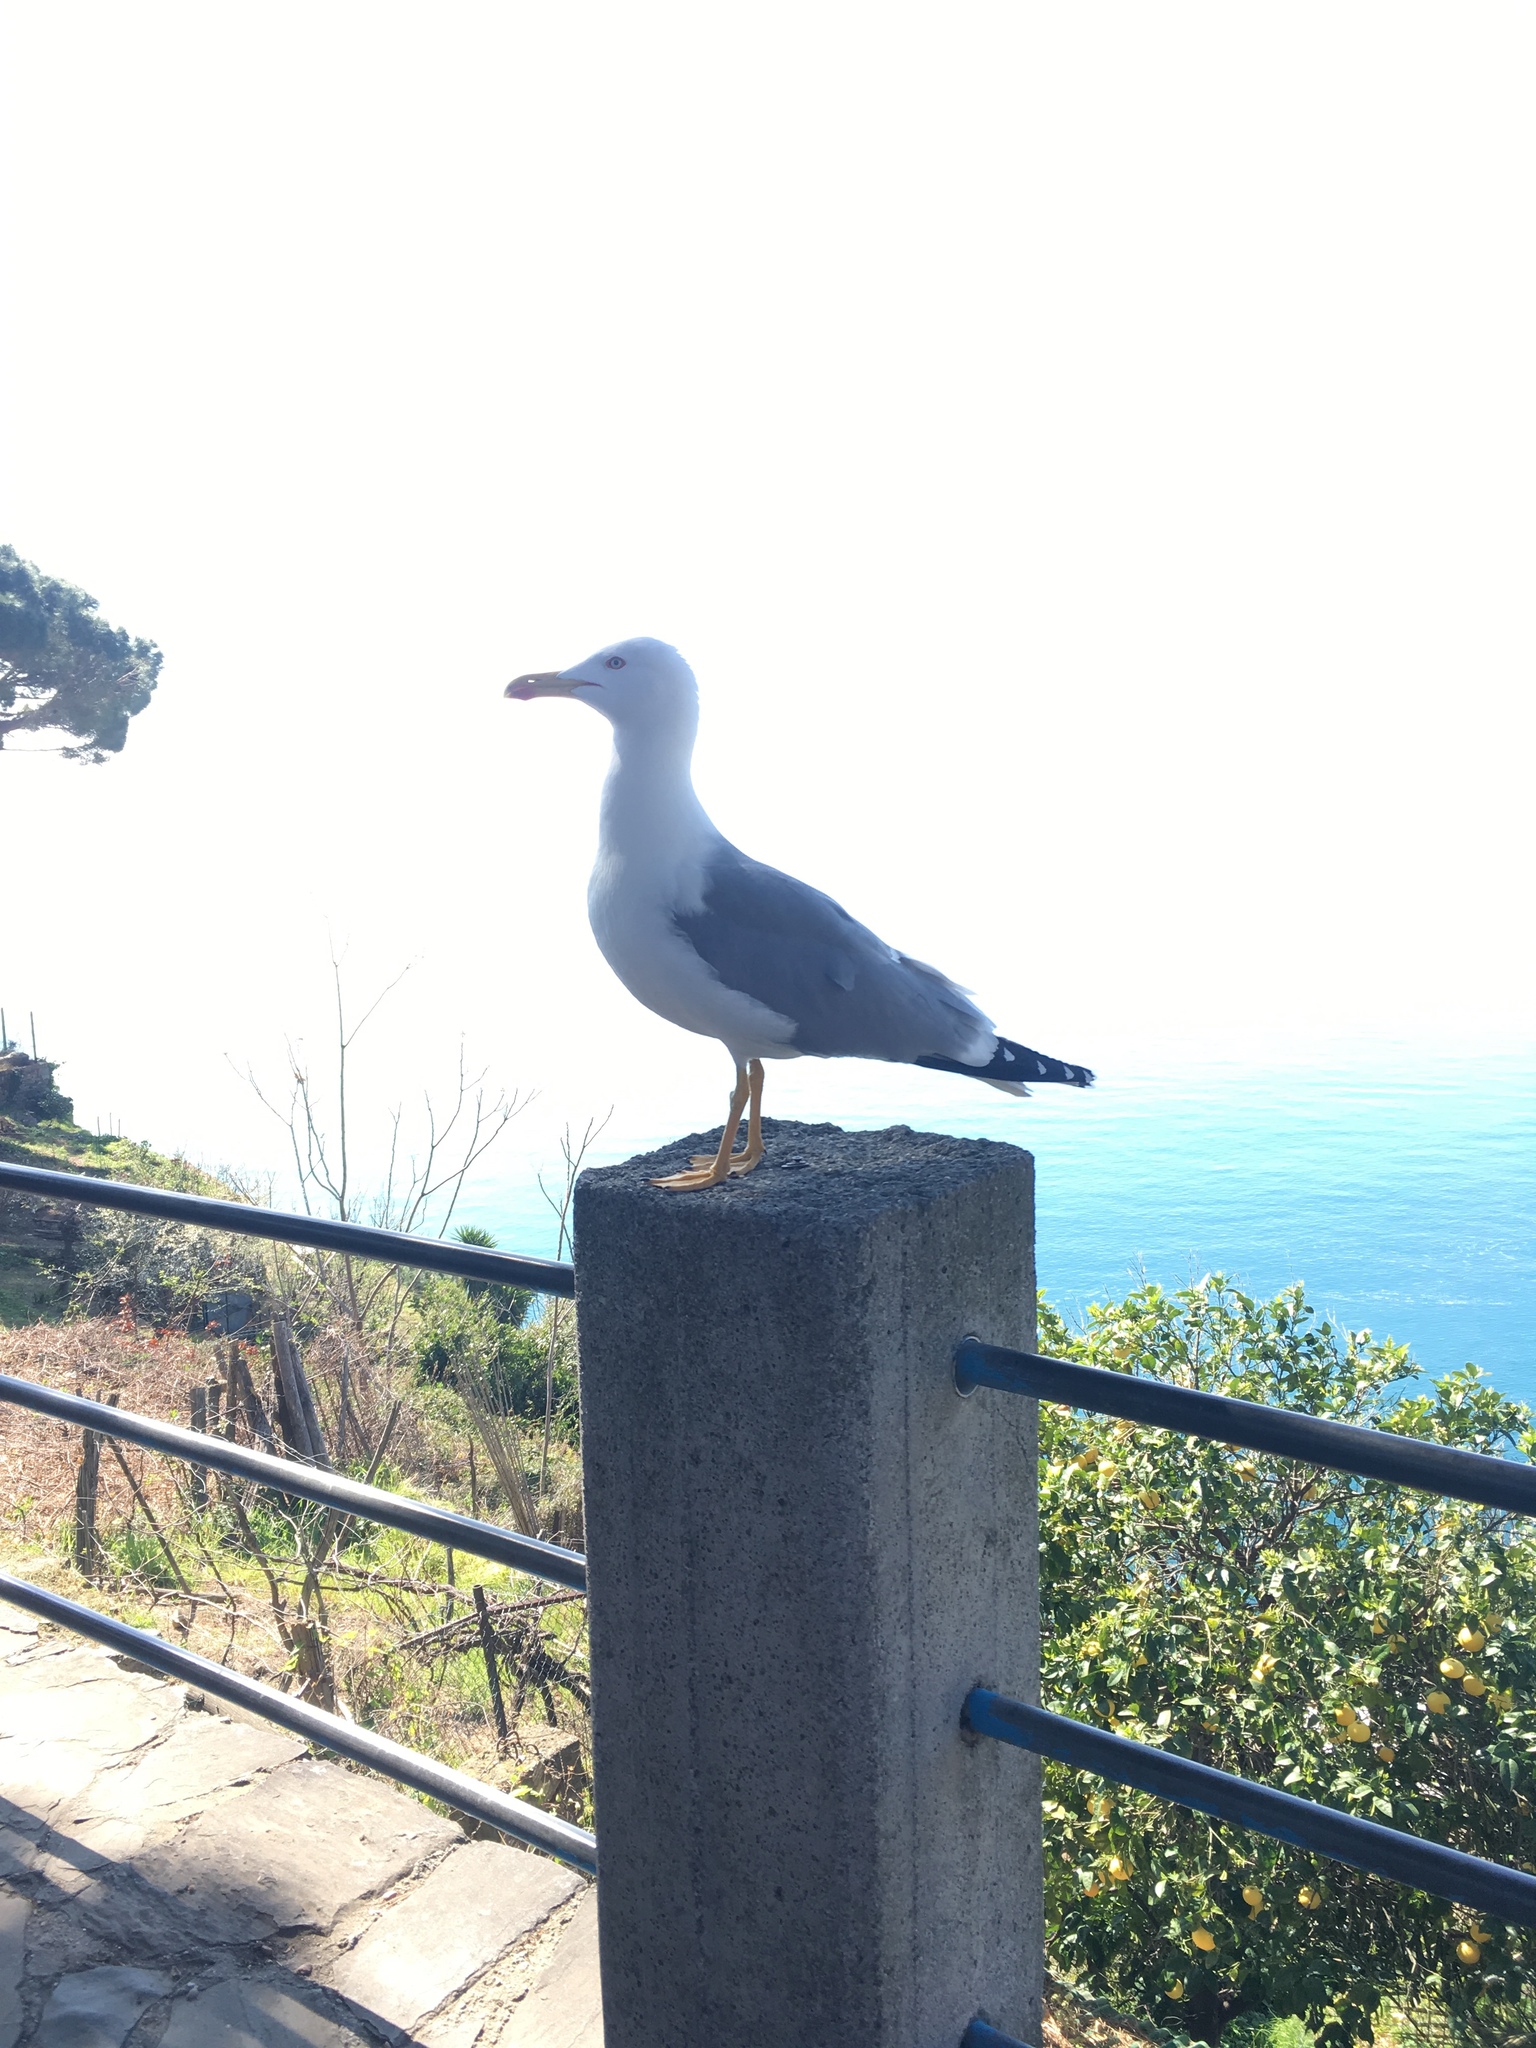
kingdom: Animalia
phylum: Chordata
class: Aves
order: Charadriiformes
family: Laridae
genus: Larus
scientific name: Larus michahellis
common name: Yellow-legged gull
